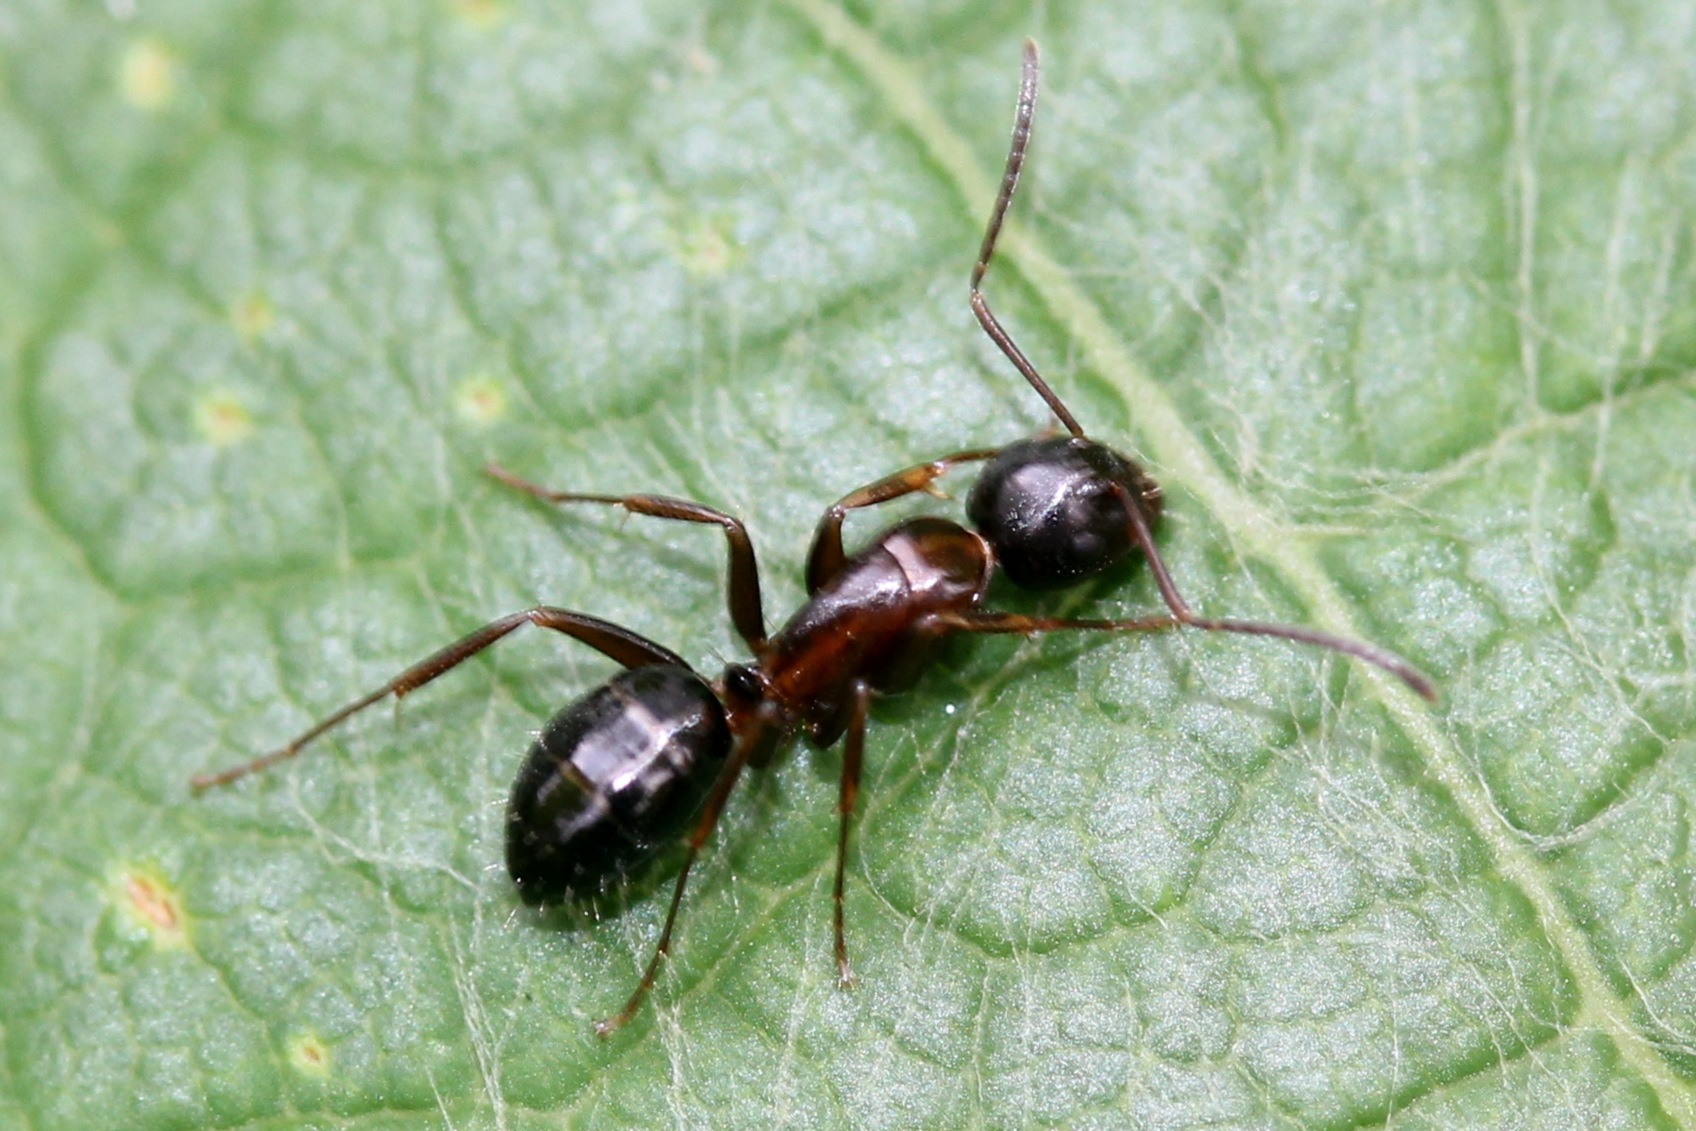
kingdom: Animalia
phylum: Arthropoda
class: Insecta
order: Hymenoptera
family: Formicidae
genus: Camponotus
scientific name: Camponotus nearcticus
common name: Smaller carpenter ant
